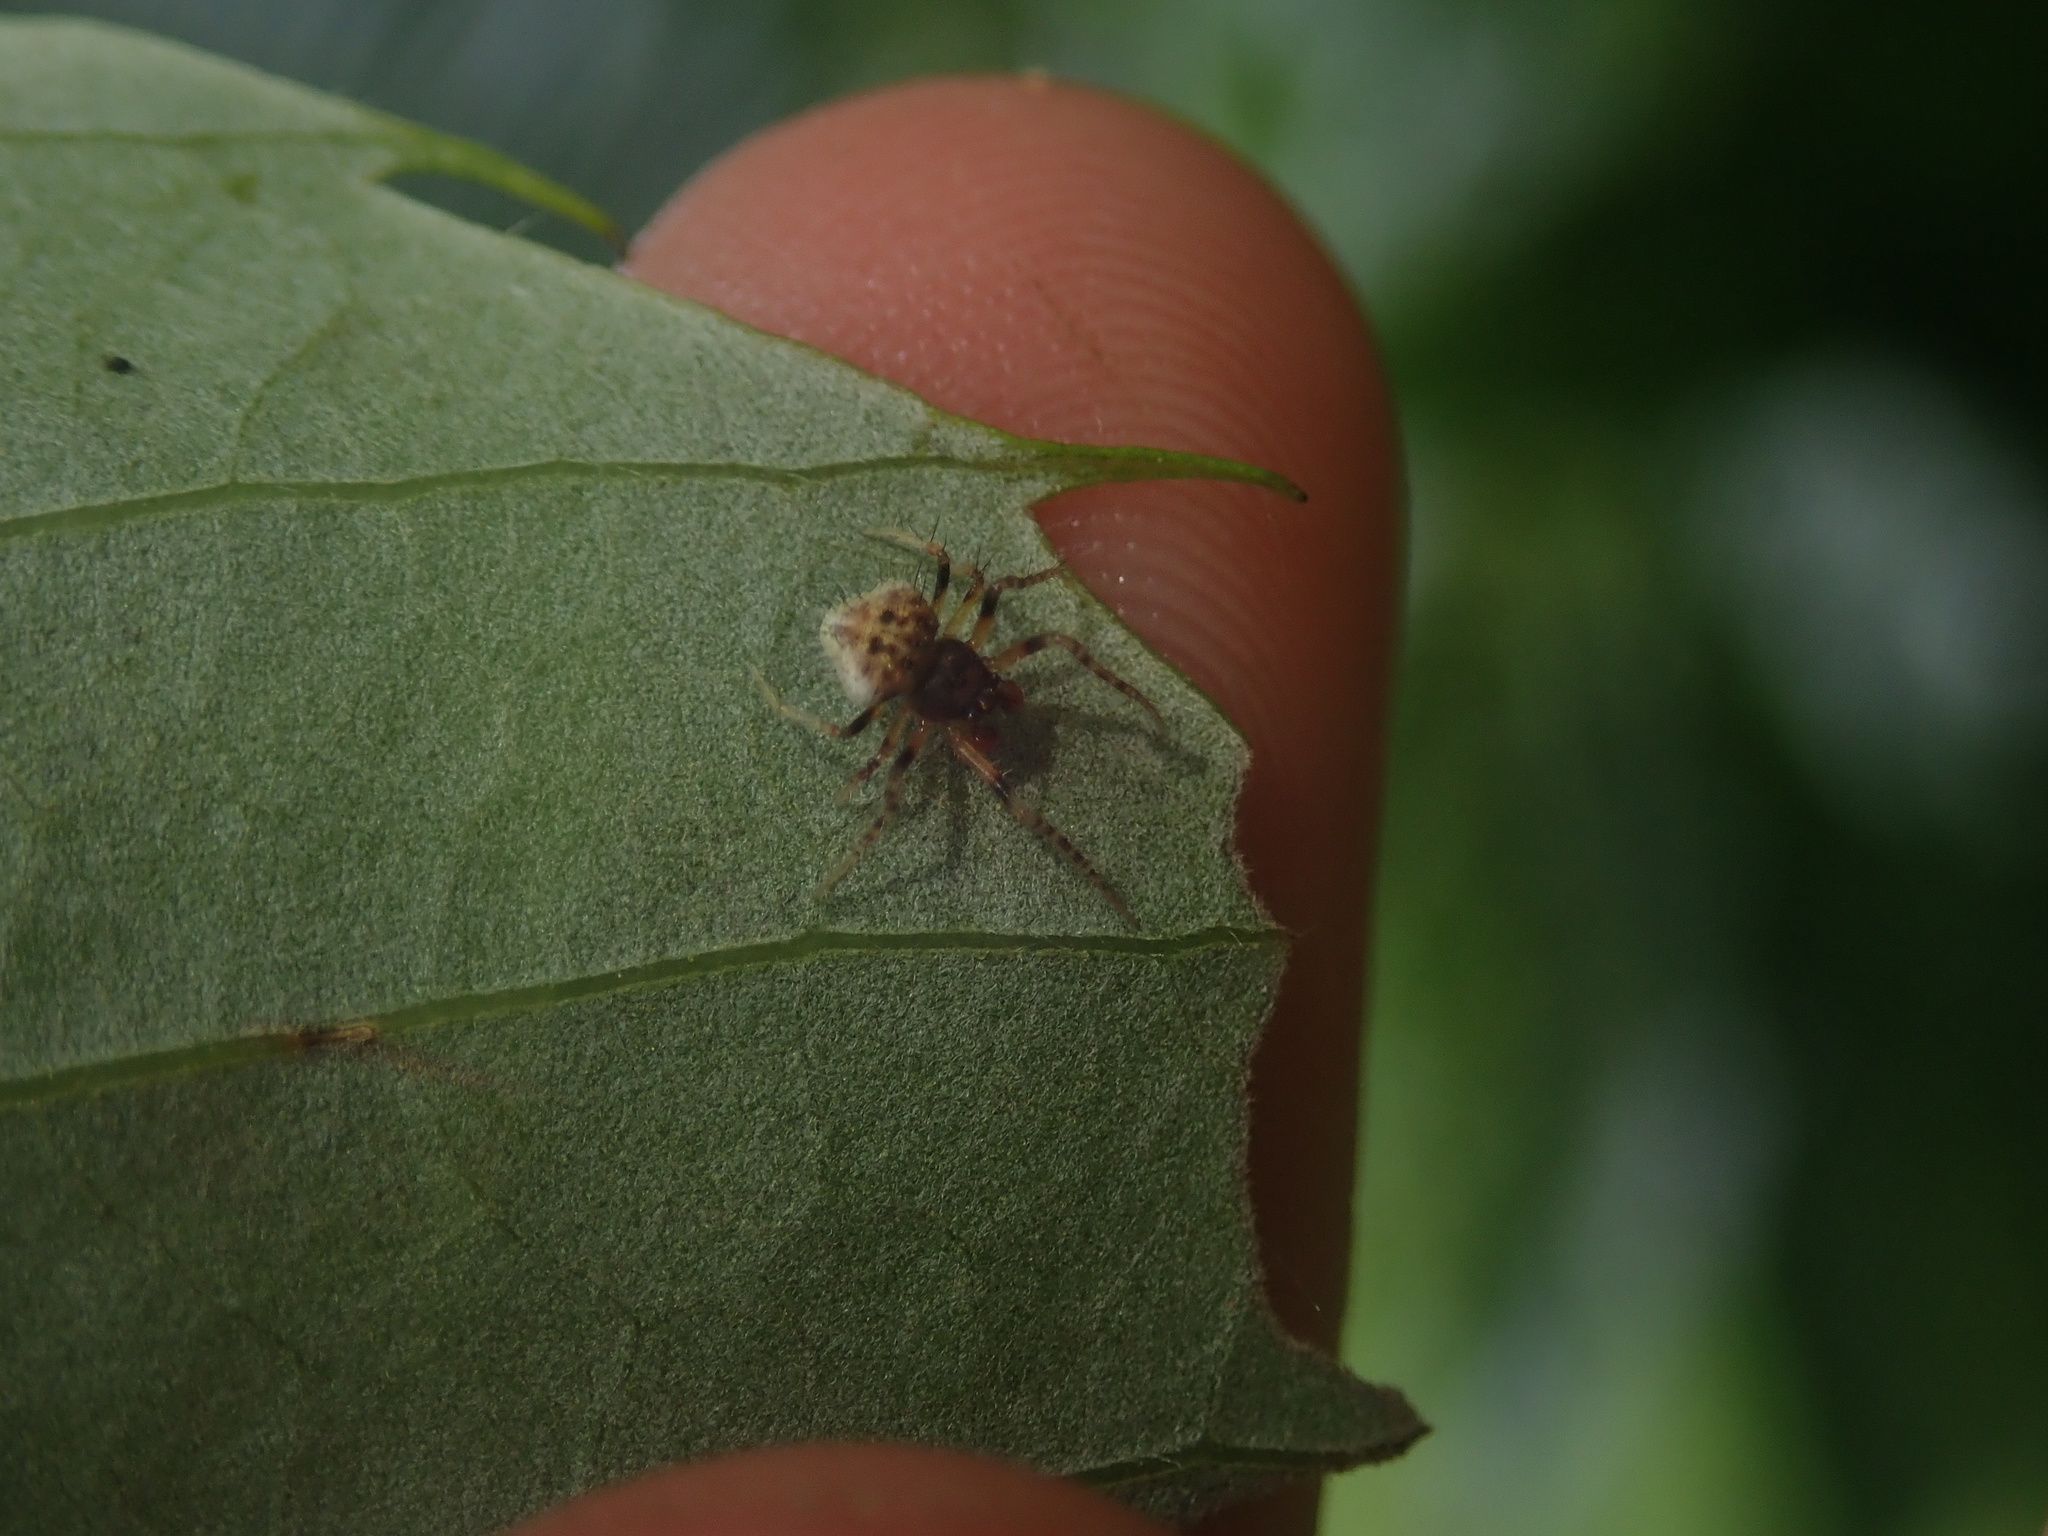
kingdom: Animalia
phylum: Arthropoda
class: Arachnida
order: Araneae
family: Araneidae
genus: Poecilopachys
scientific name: Poecilopachys australasia
